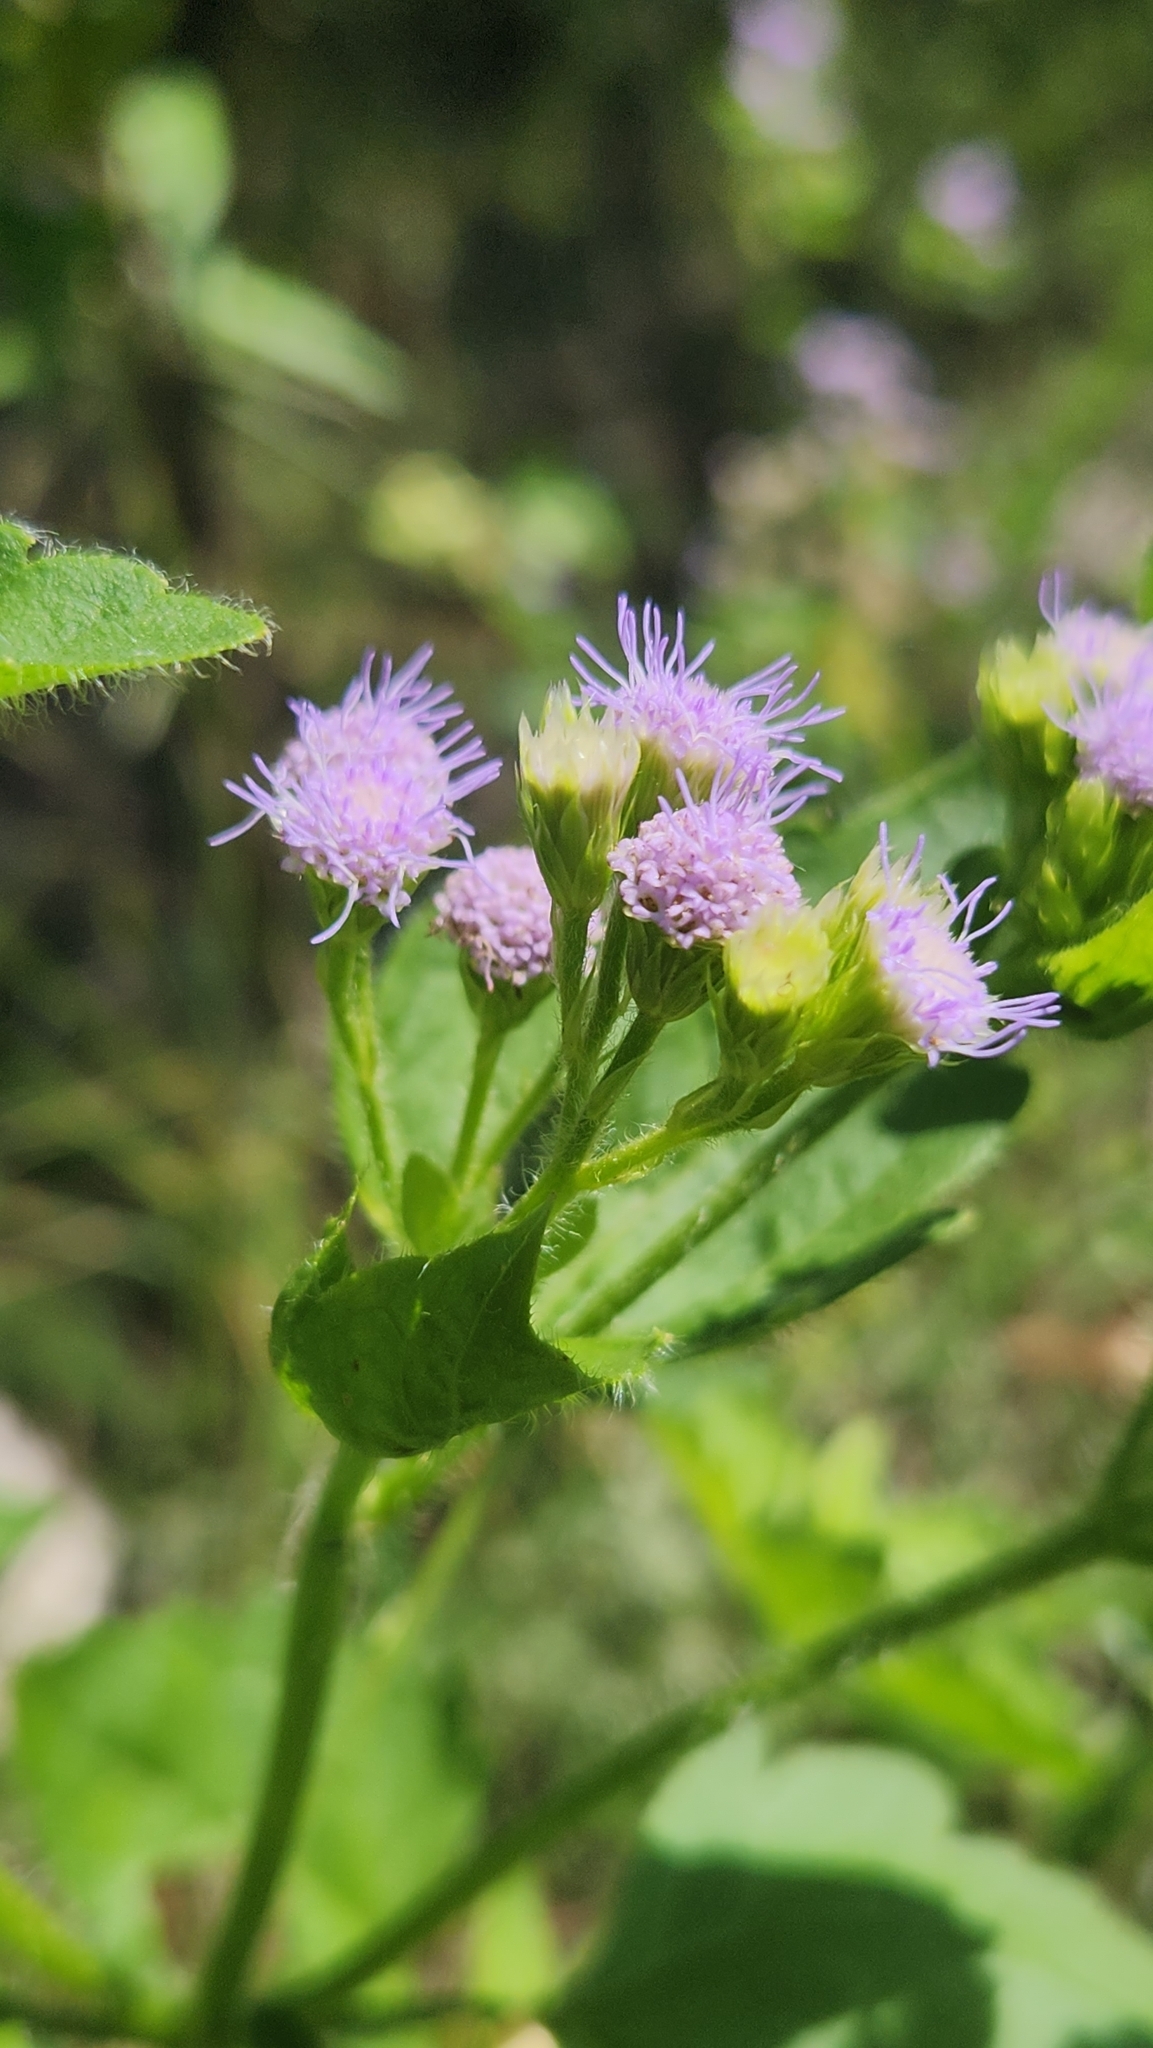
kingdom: Plantae
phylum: Tracheophyta
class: Magnoliopsida
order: Asterales
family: Asteraceae
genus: Praxelis
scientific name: Praxelis clematidea
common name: Praxelis
